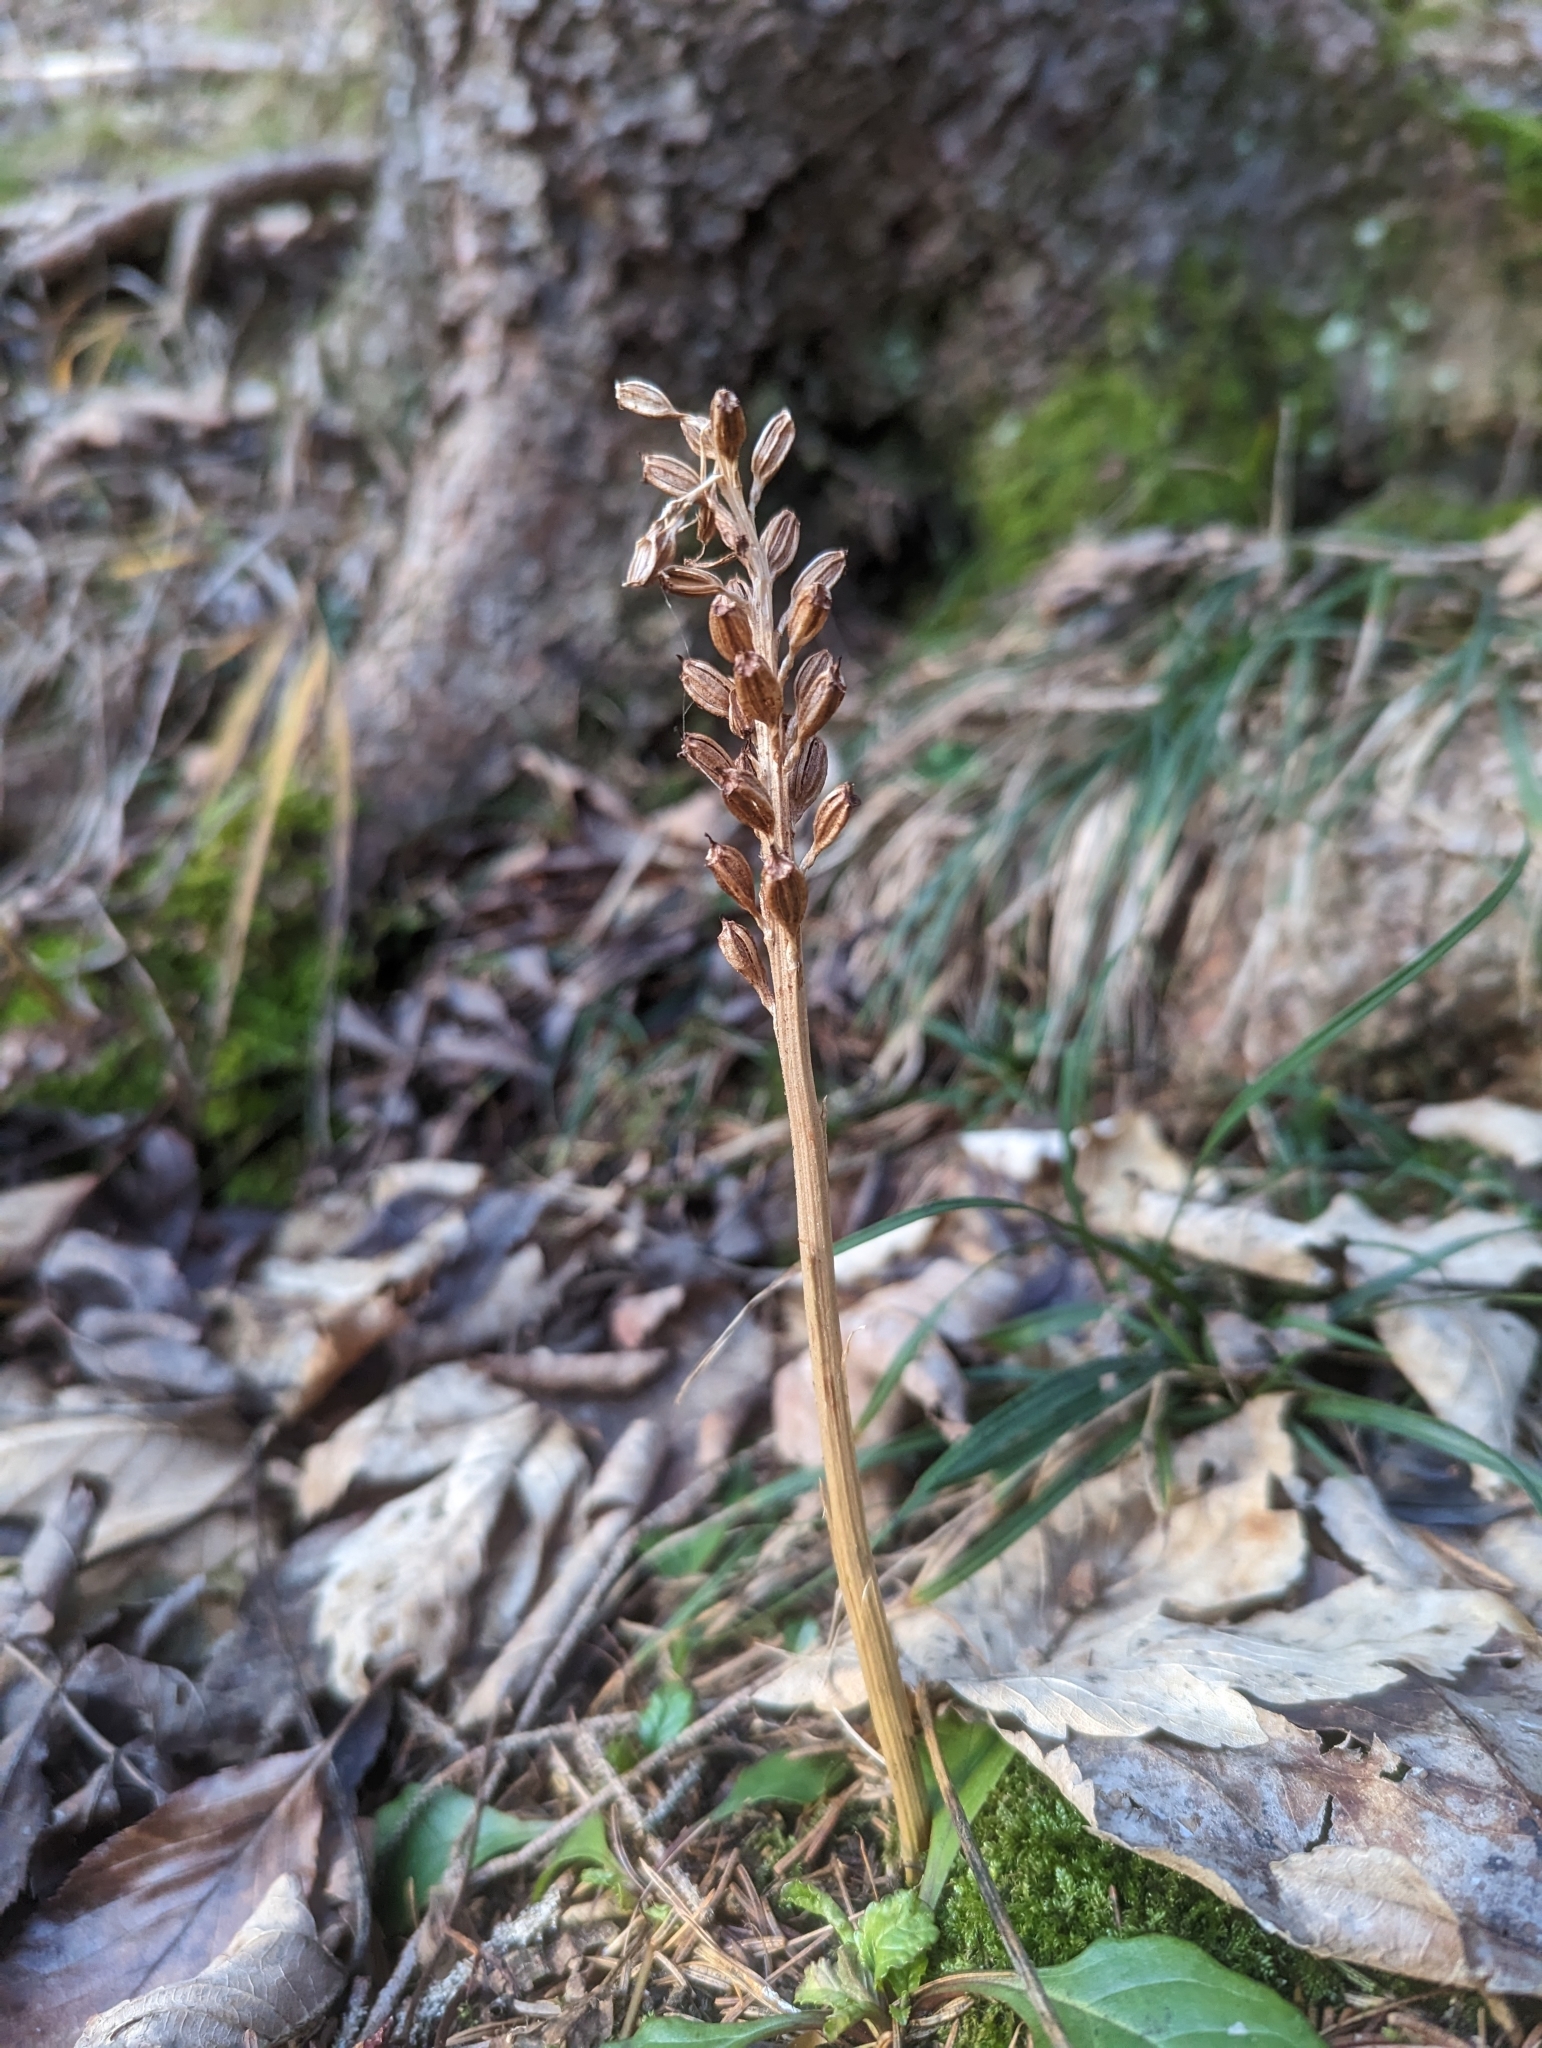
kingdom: Plantae
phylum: Tracheophyta
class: Liliopsida
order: Asparagales
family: Orchidaceae
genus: Neottia
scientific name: Neottia nidus-avis
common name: Bird's-nest orchid
